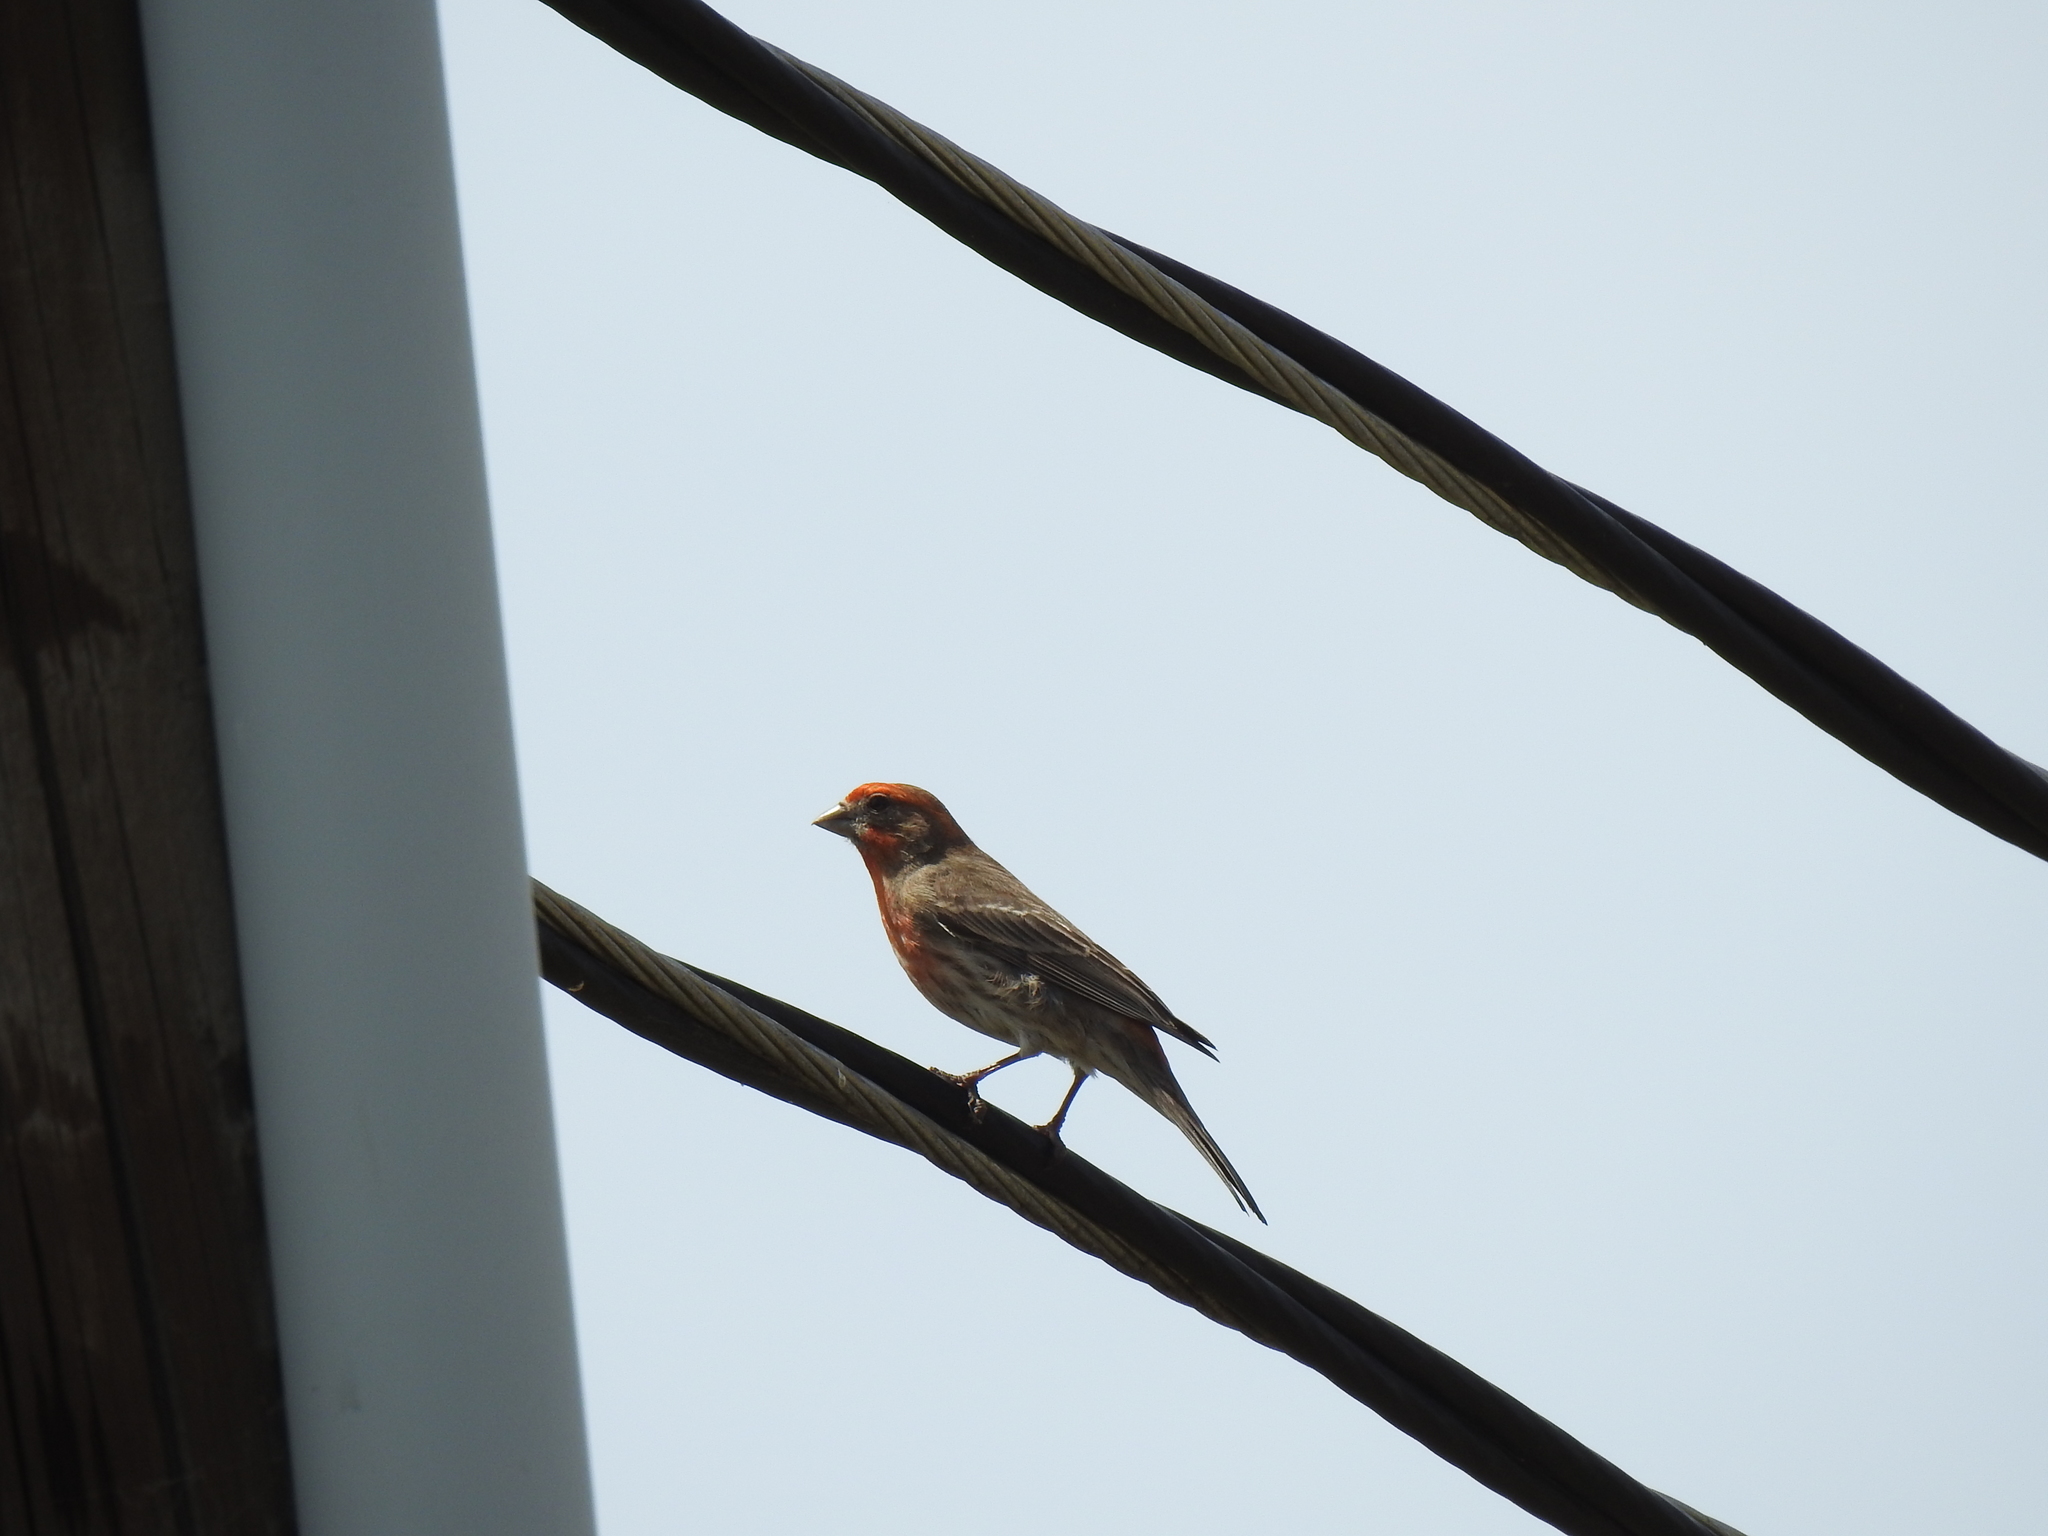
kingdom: Animalia
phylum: Chordata
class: Aves
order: Passeriformes
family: Fringillidae
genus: Haemorhous
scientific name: Haemorhous mexicanus
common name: House finch
